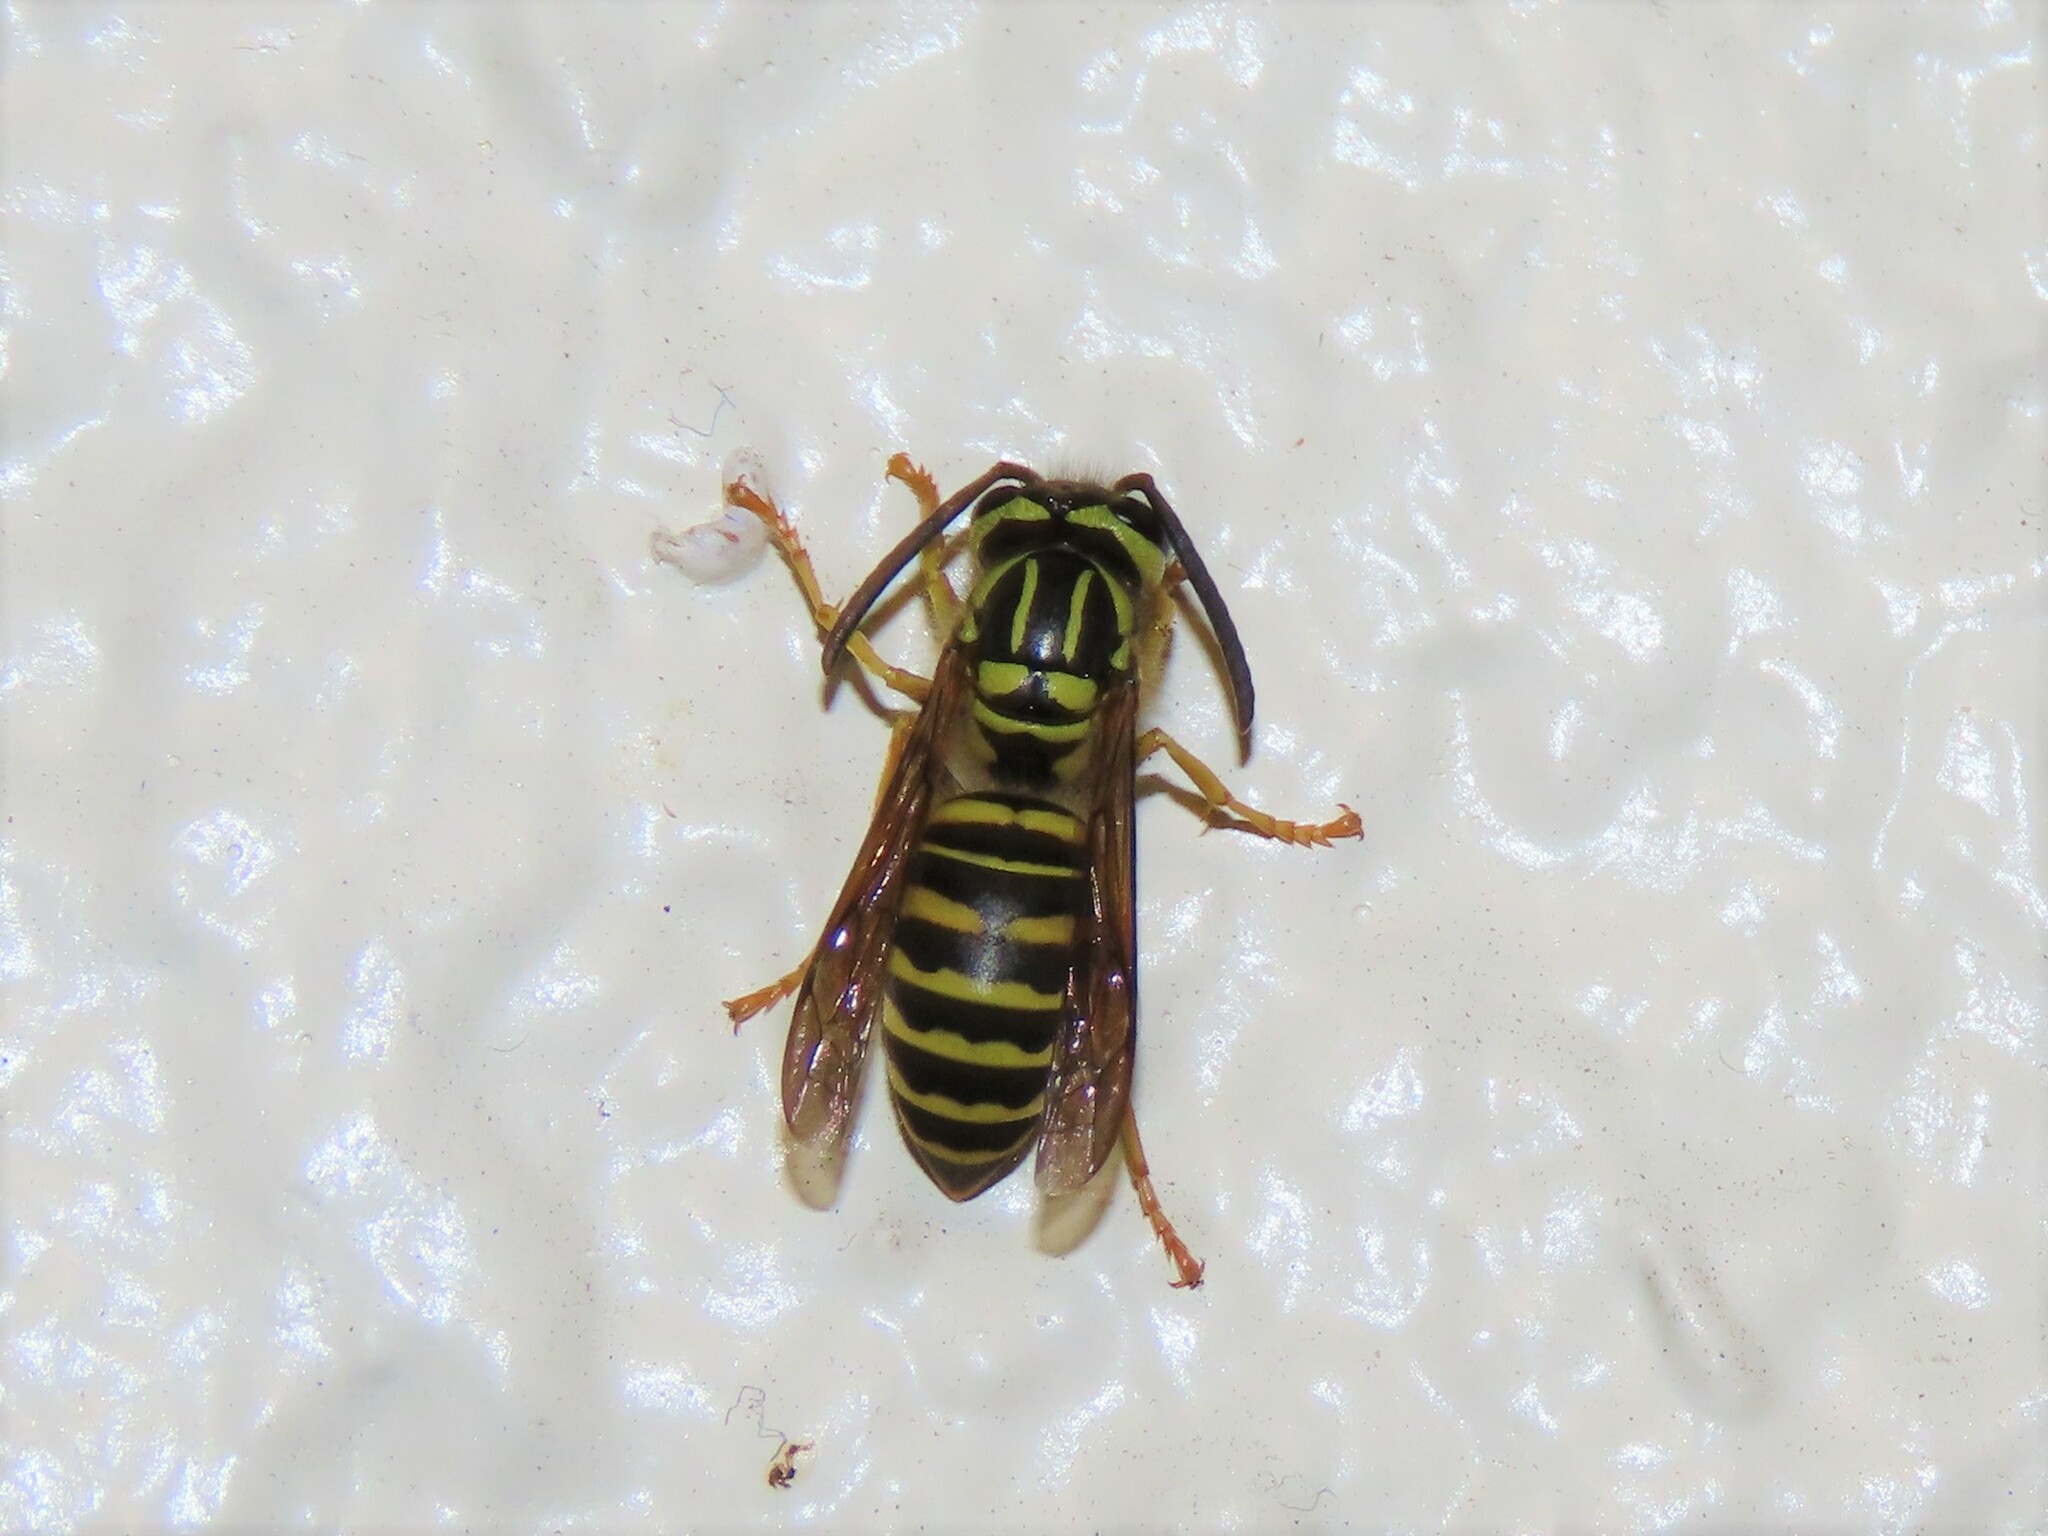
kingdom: Animalia
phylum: Arthropoda
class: Insecta
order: Hymenoptera
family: Vespidae
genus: Vespula
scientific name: Vespula squamosa
